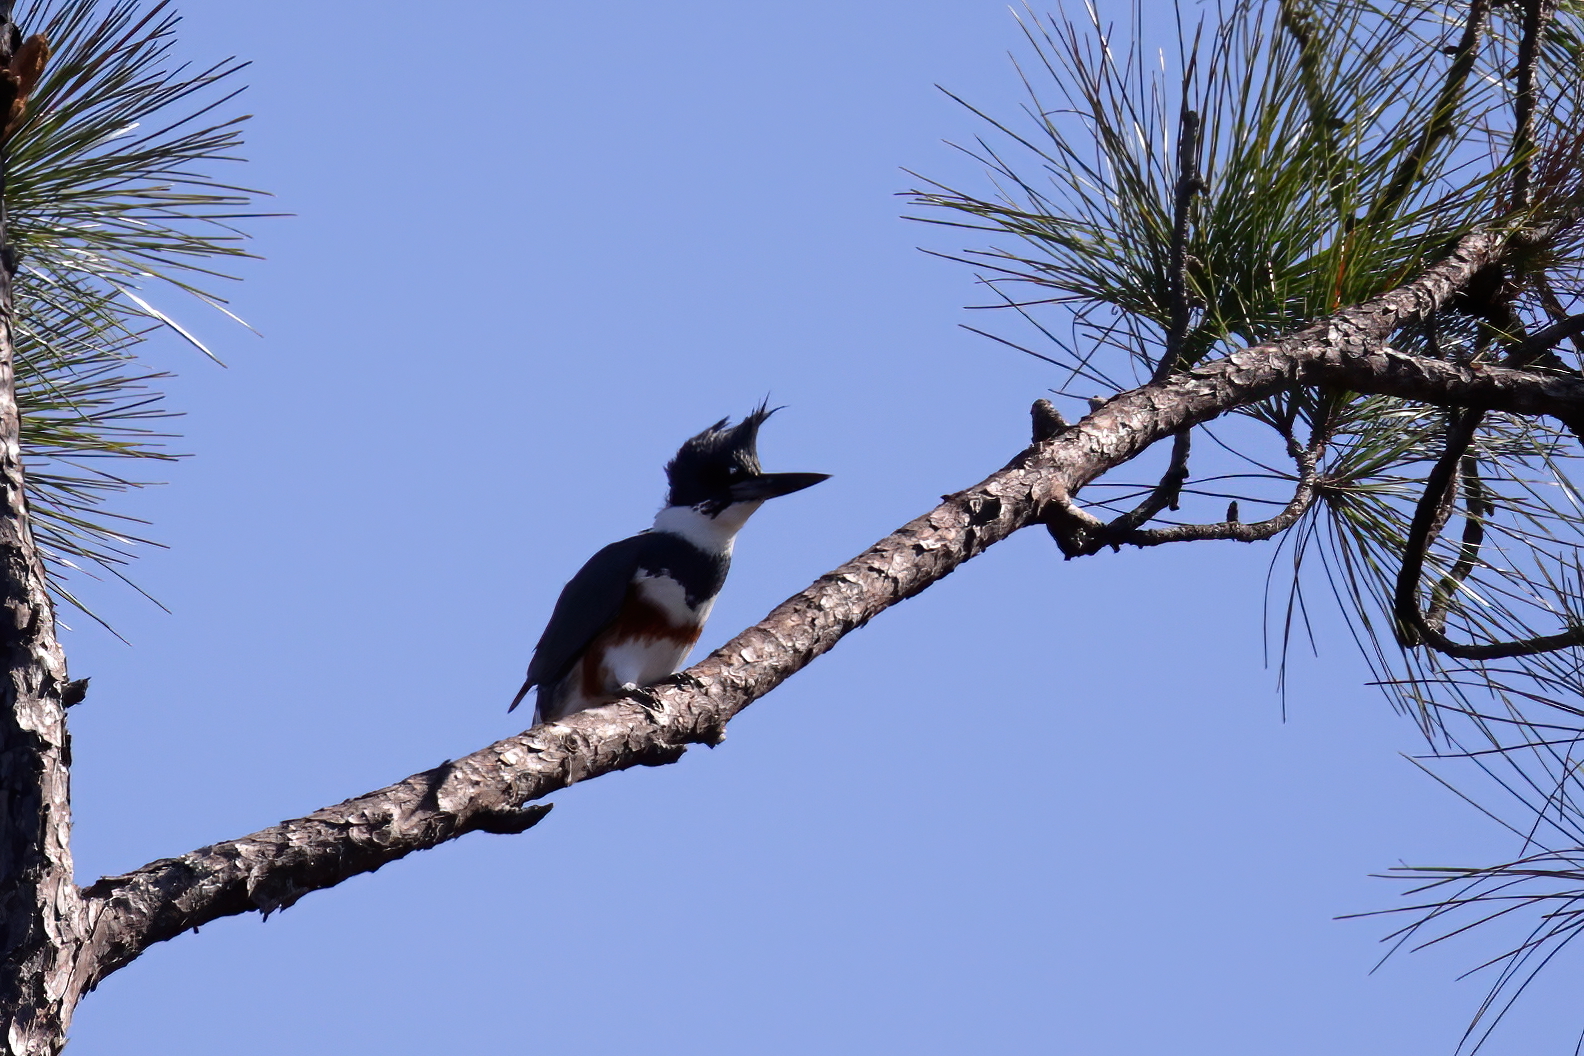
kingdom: Animalia
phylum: Chordata
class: Aves
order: Coraciiformes
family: Alcedinidae
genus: Megaceryle
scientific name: Megaceryle alcyon
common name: Belted kingfisher
